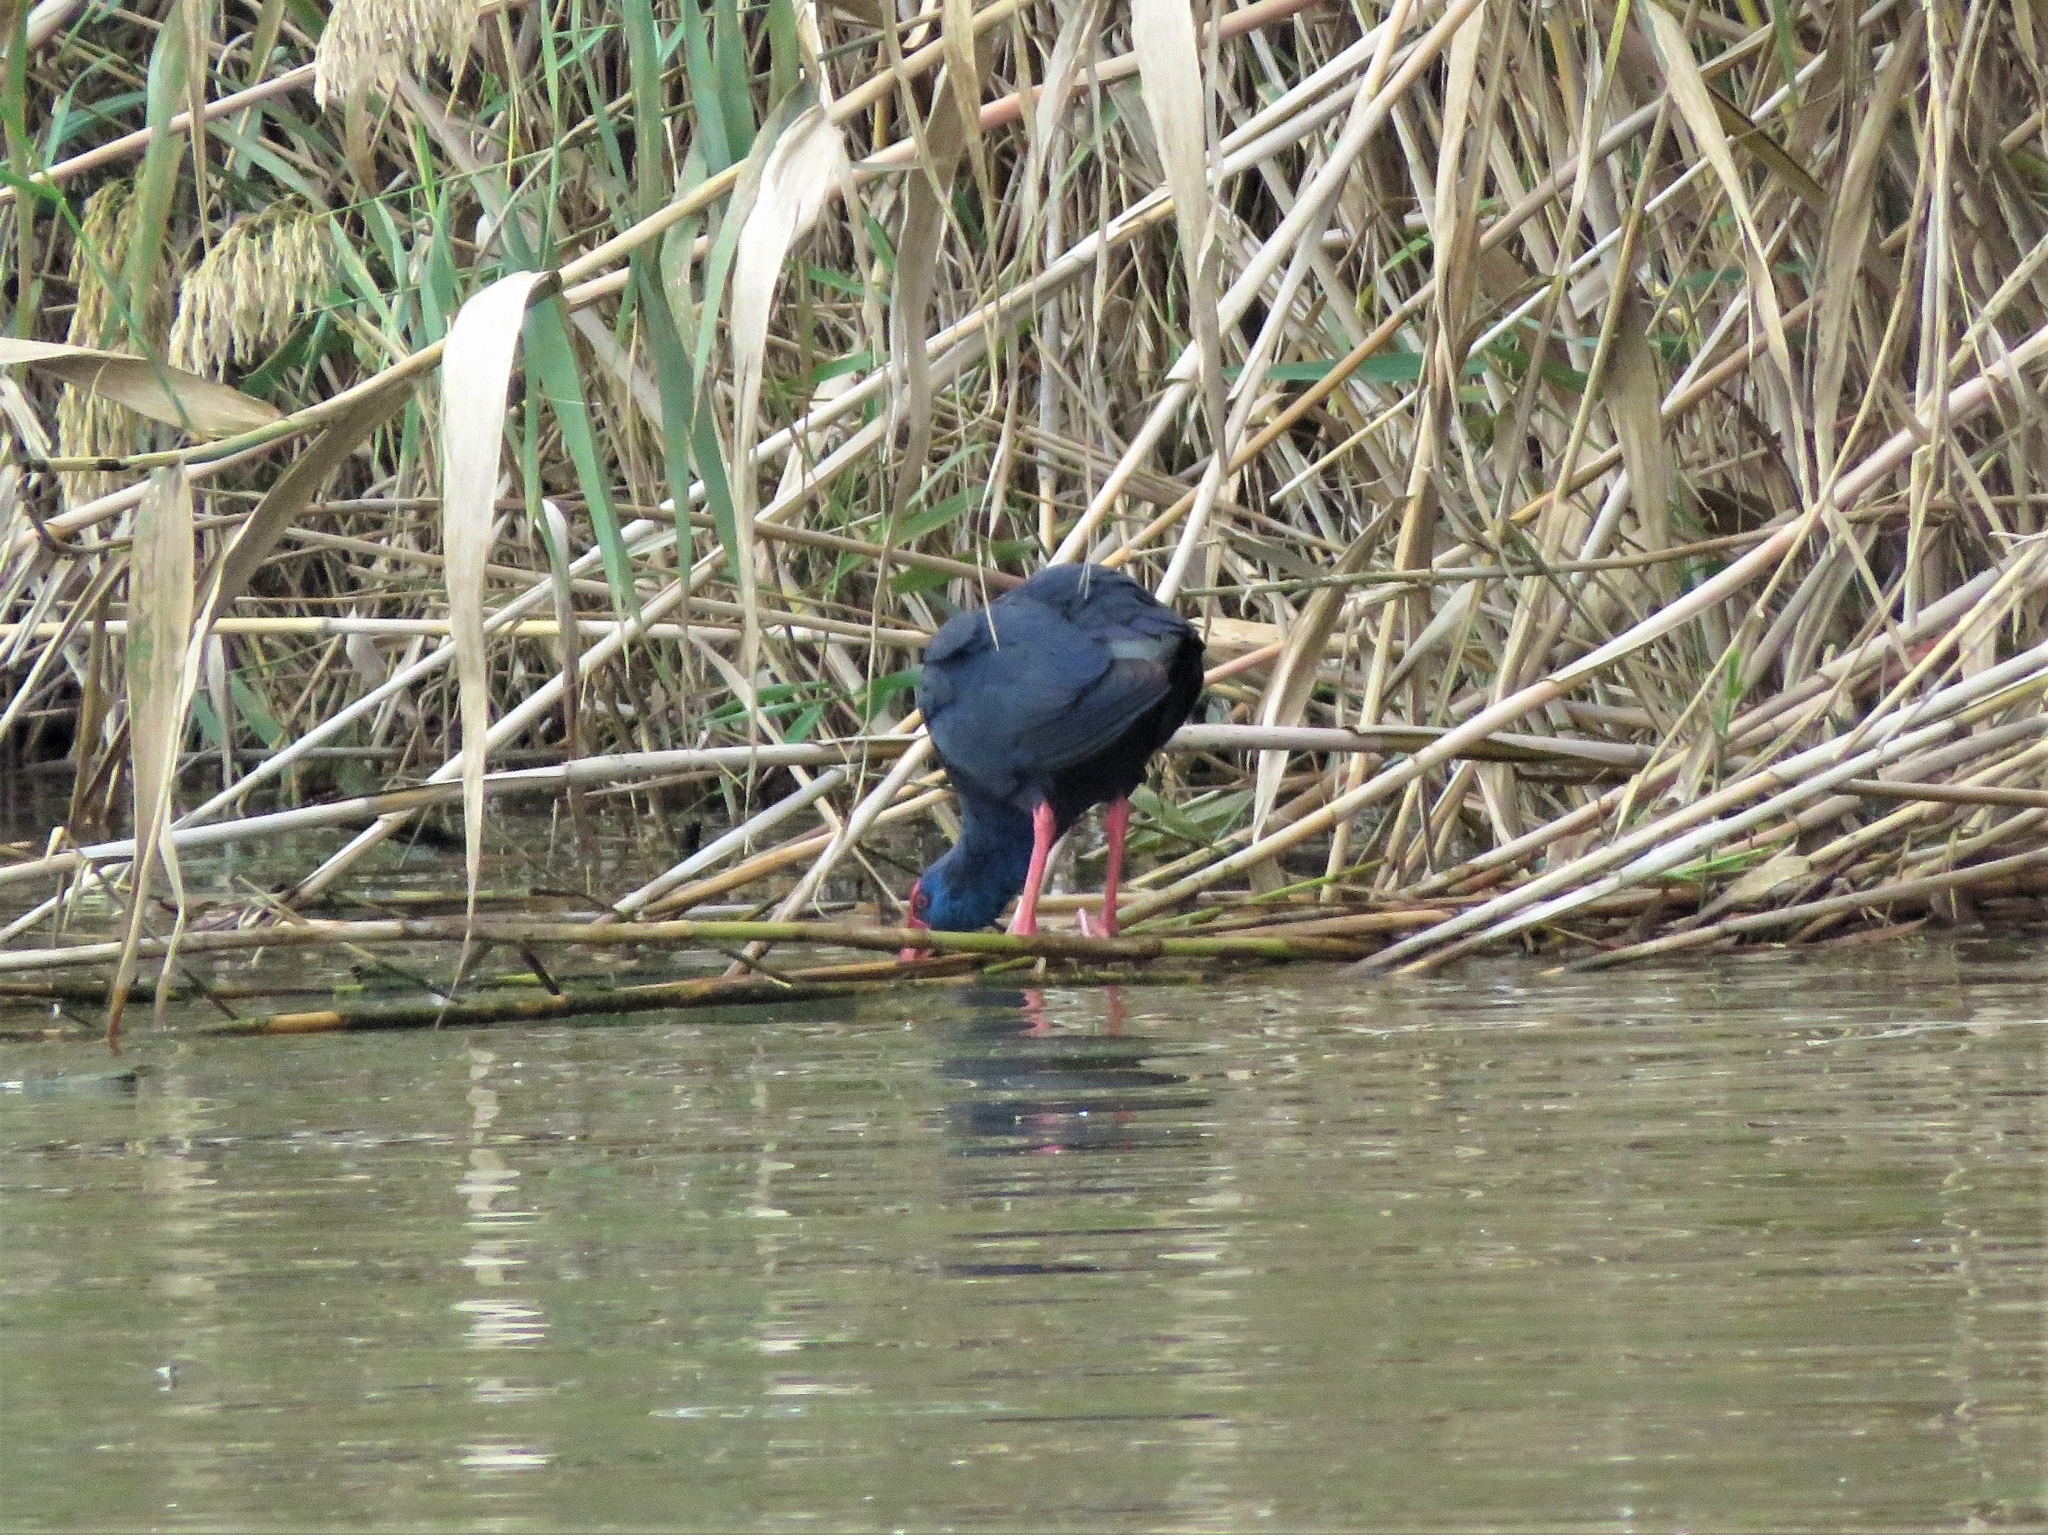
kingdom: Animalia
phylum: Chordata
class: Aves
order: Gruiformes
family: Rallidae
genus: Porphyrio
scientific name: Porphyrio porphyrio
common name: Purple swamphen
